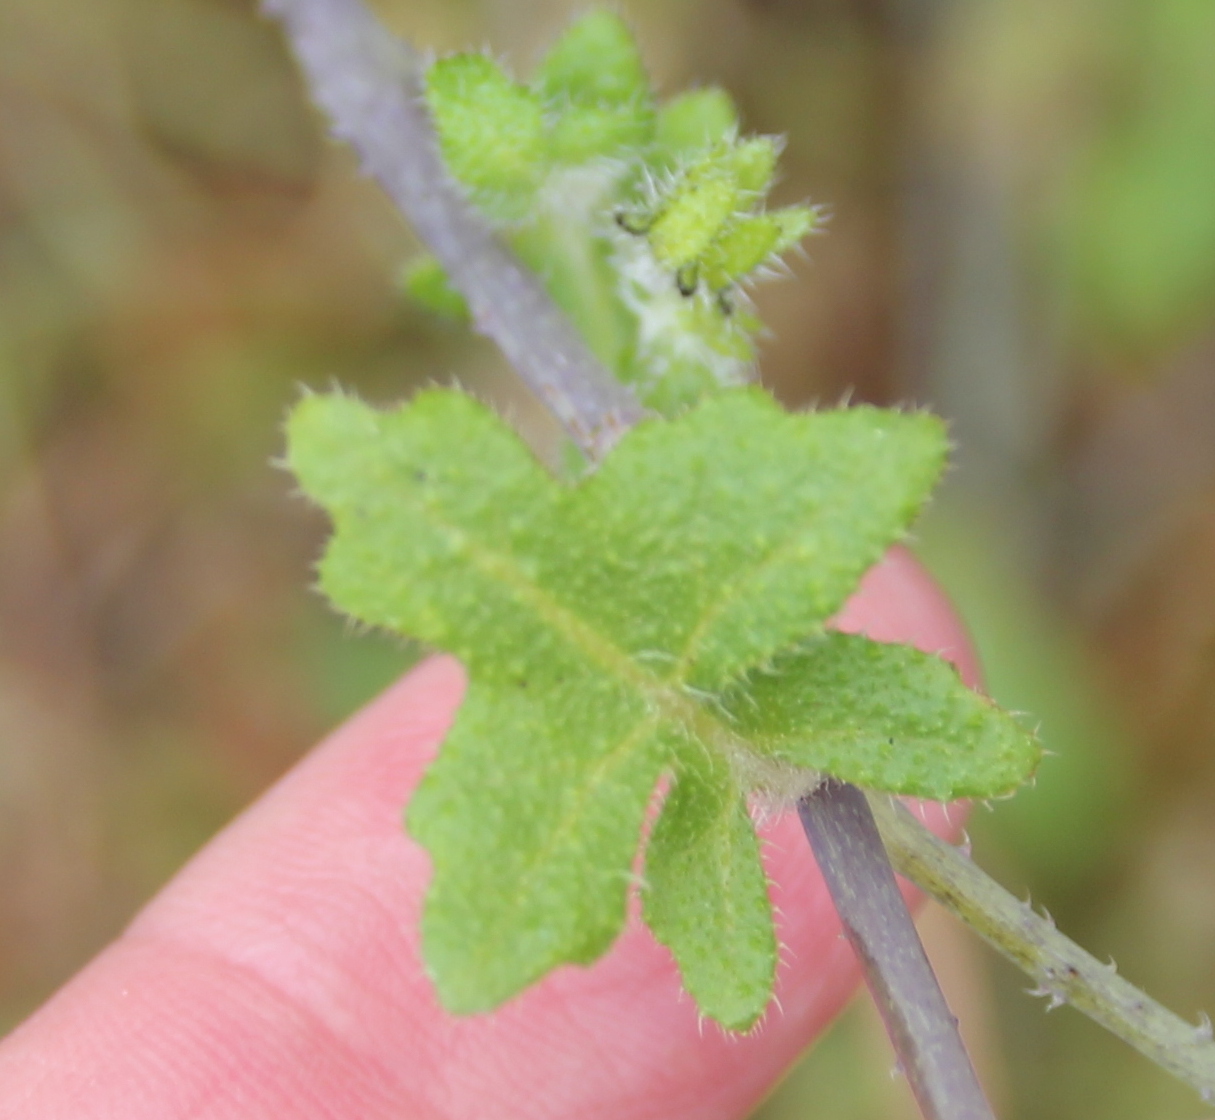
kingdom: Plantae
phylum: Tracheophyta
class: Magnoliopsida
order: Boraginales
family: Hydrophyllaceae
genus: Pholistoma
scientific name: Pholistoma racemosum
